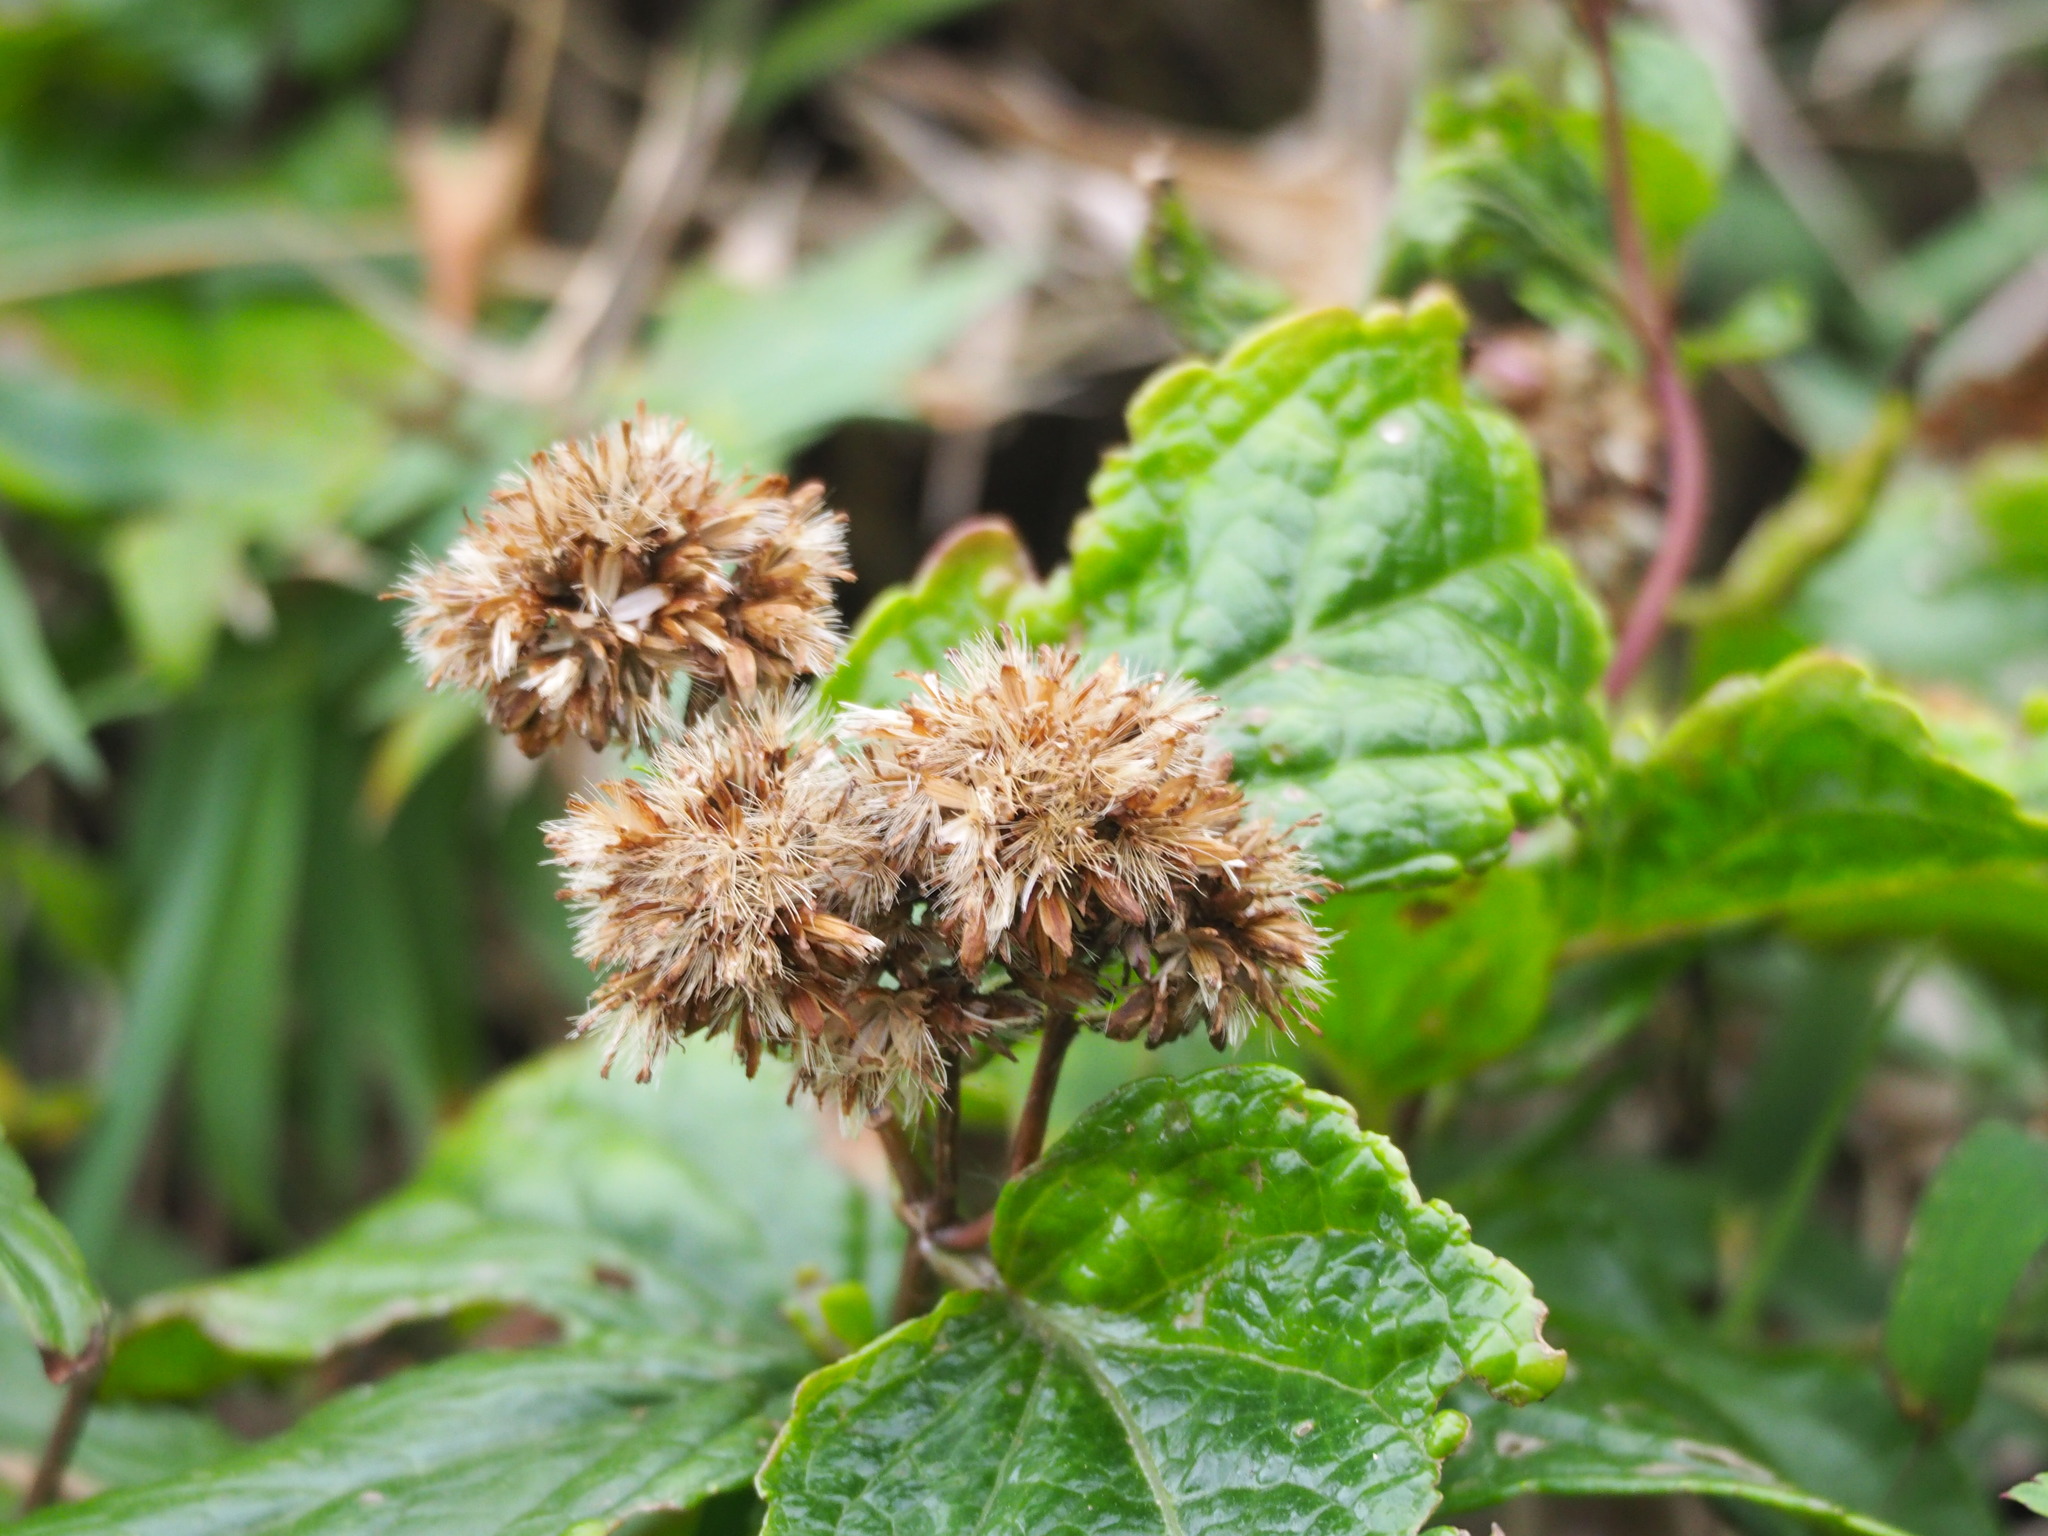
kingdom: Plantae
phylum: Tracheophyta
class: Magnoliopsida
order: Asterales
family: Asteraceae
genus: Eupatorium
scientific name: Eupatorium luchuense
